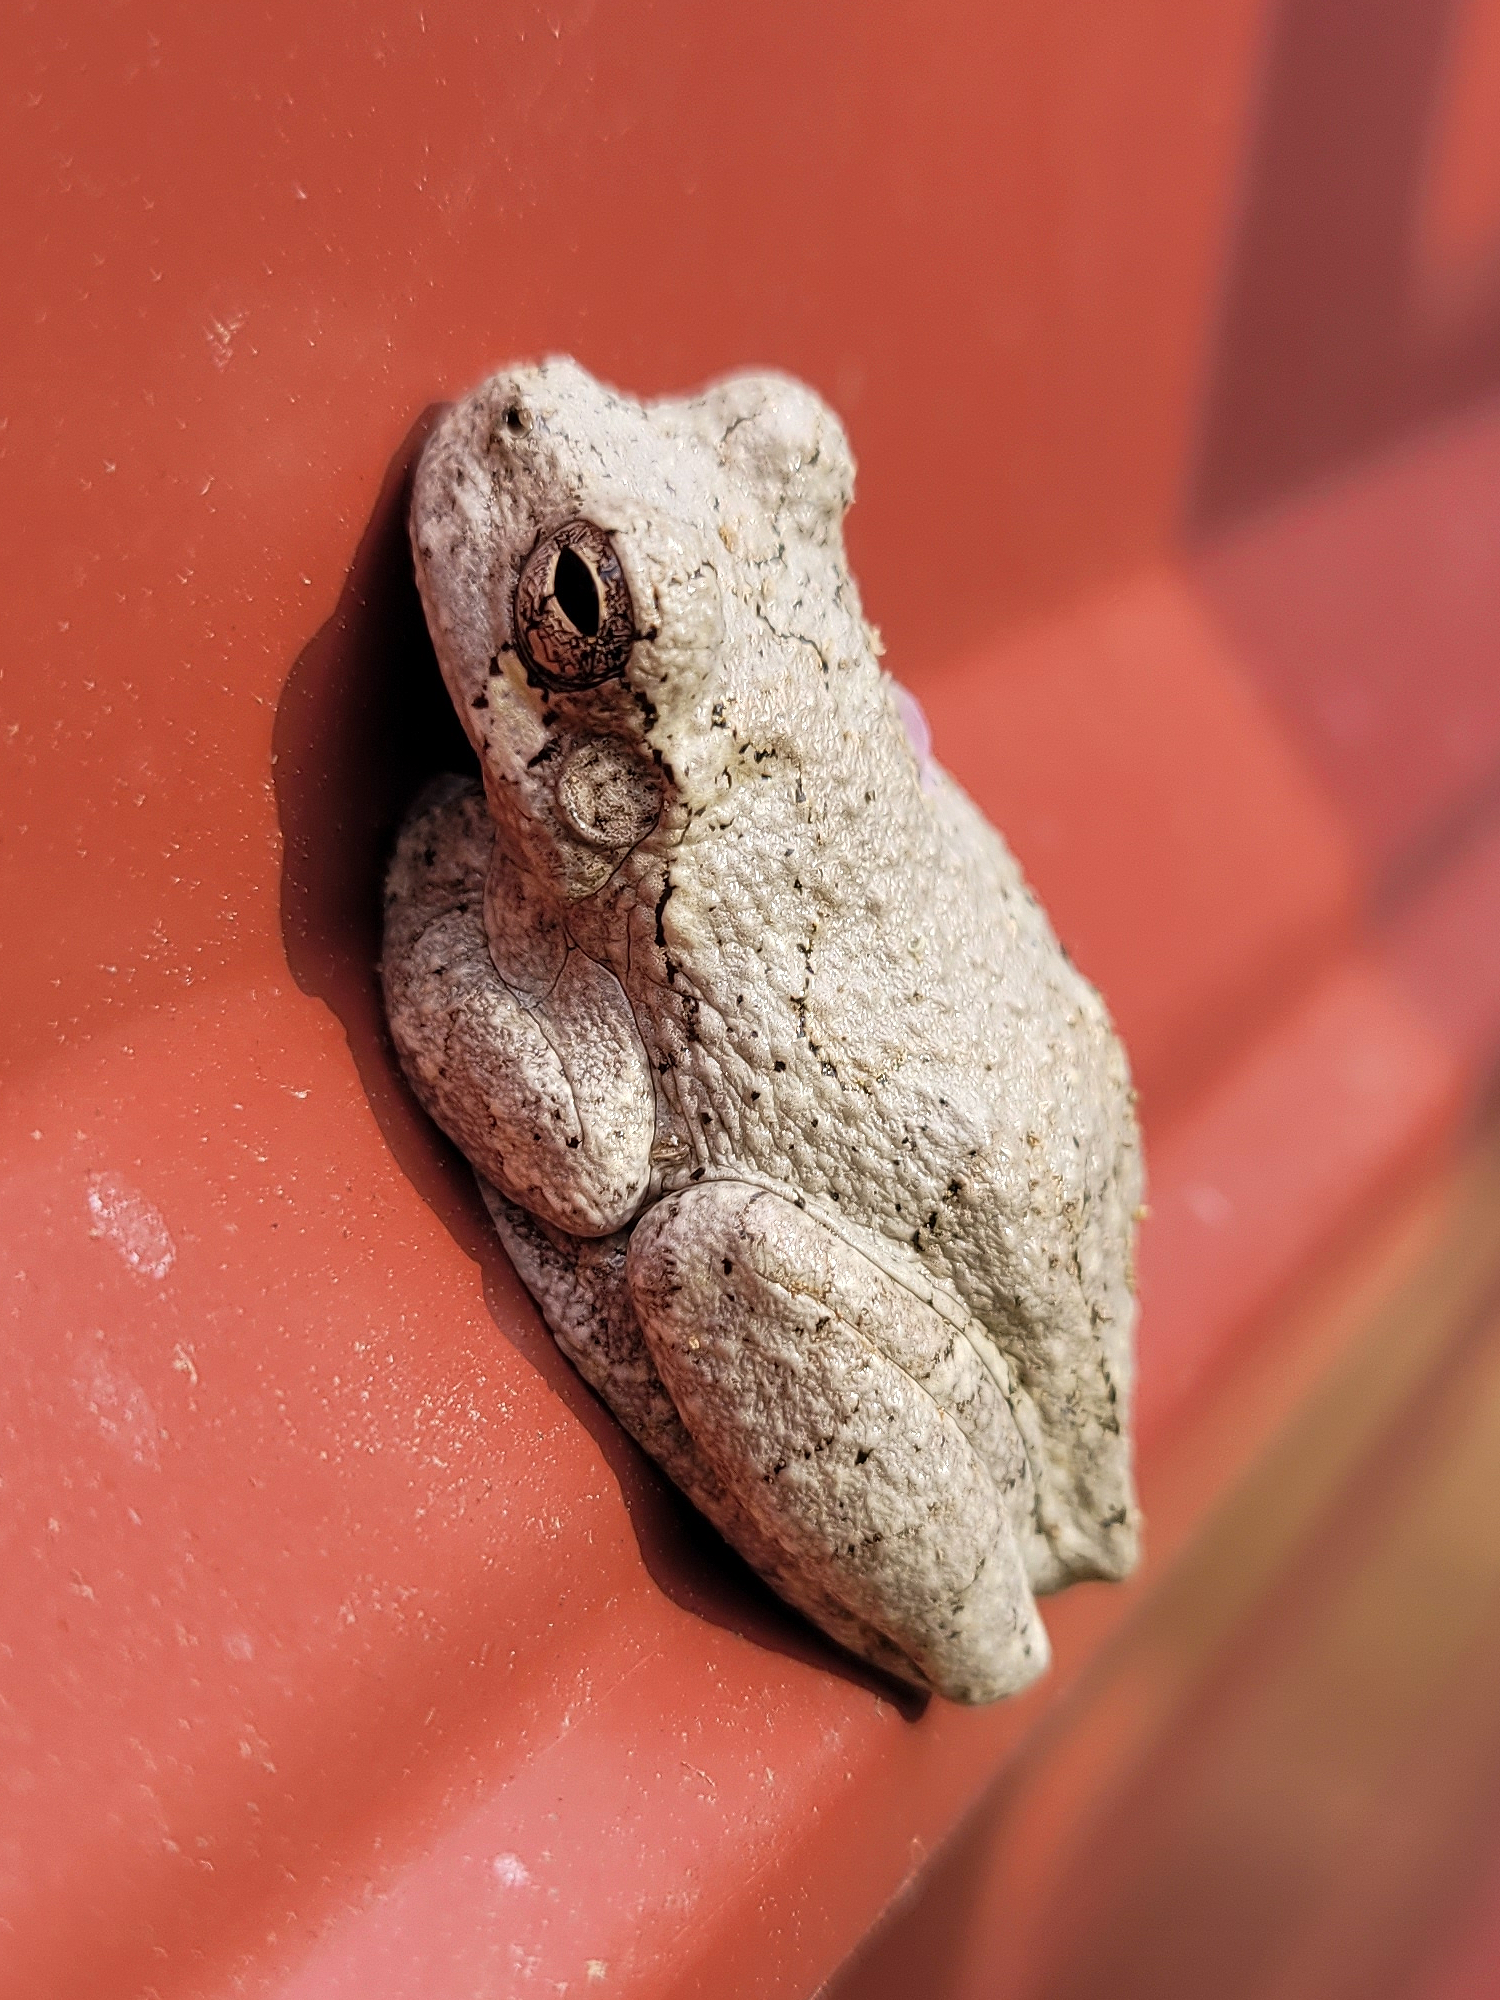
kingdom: Animalia
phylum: Chordata
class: Amphibia
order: Anura
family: Hylidae
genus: Dryophytes
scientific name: Dryophytes chrysoscelis
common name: Cope's gray treefrog
